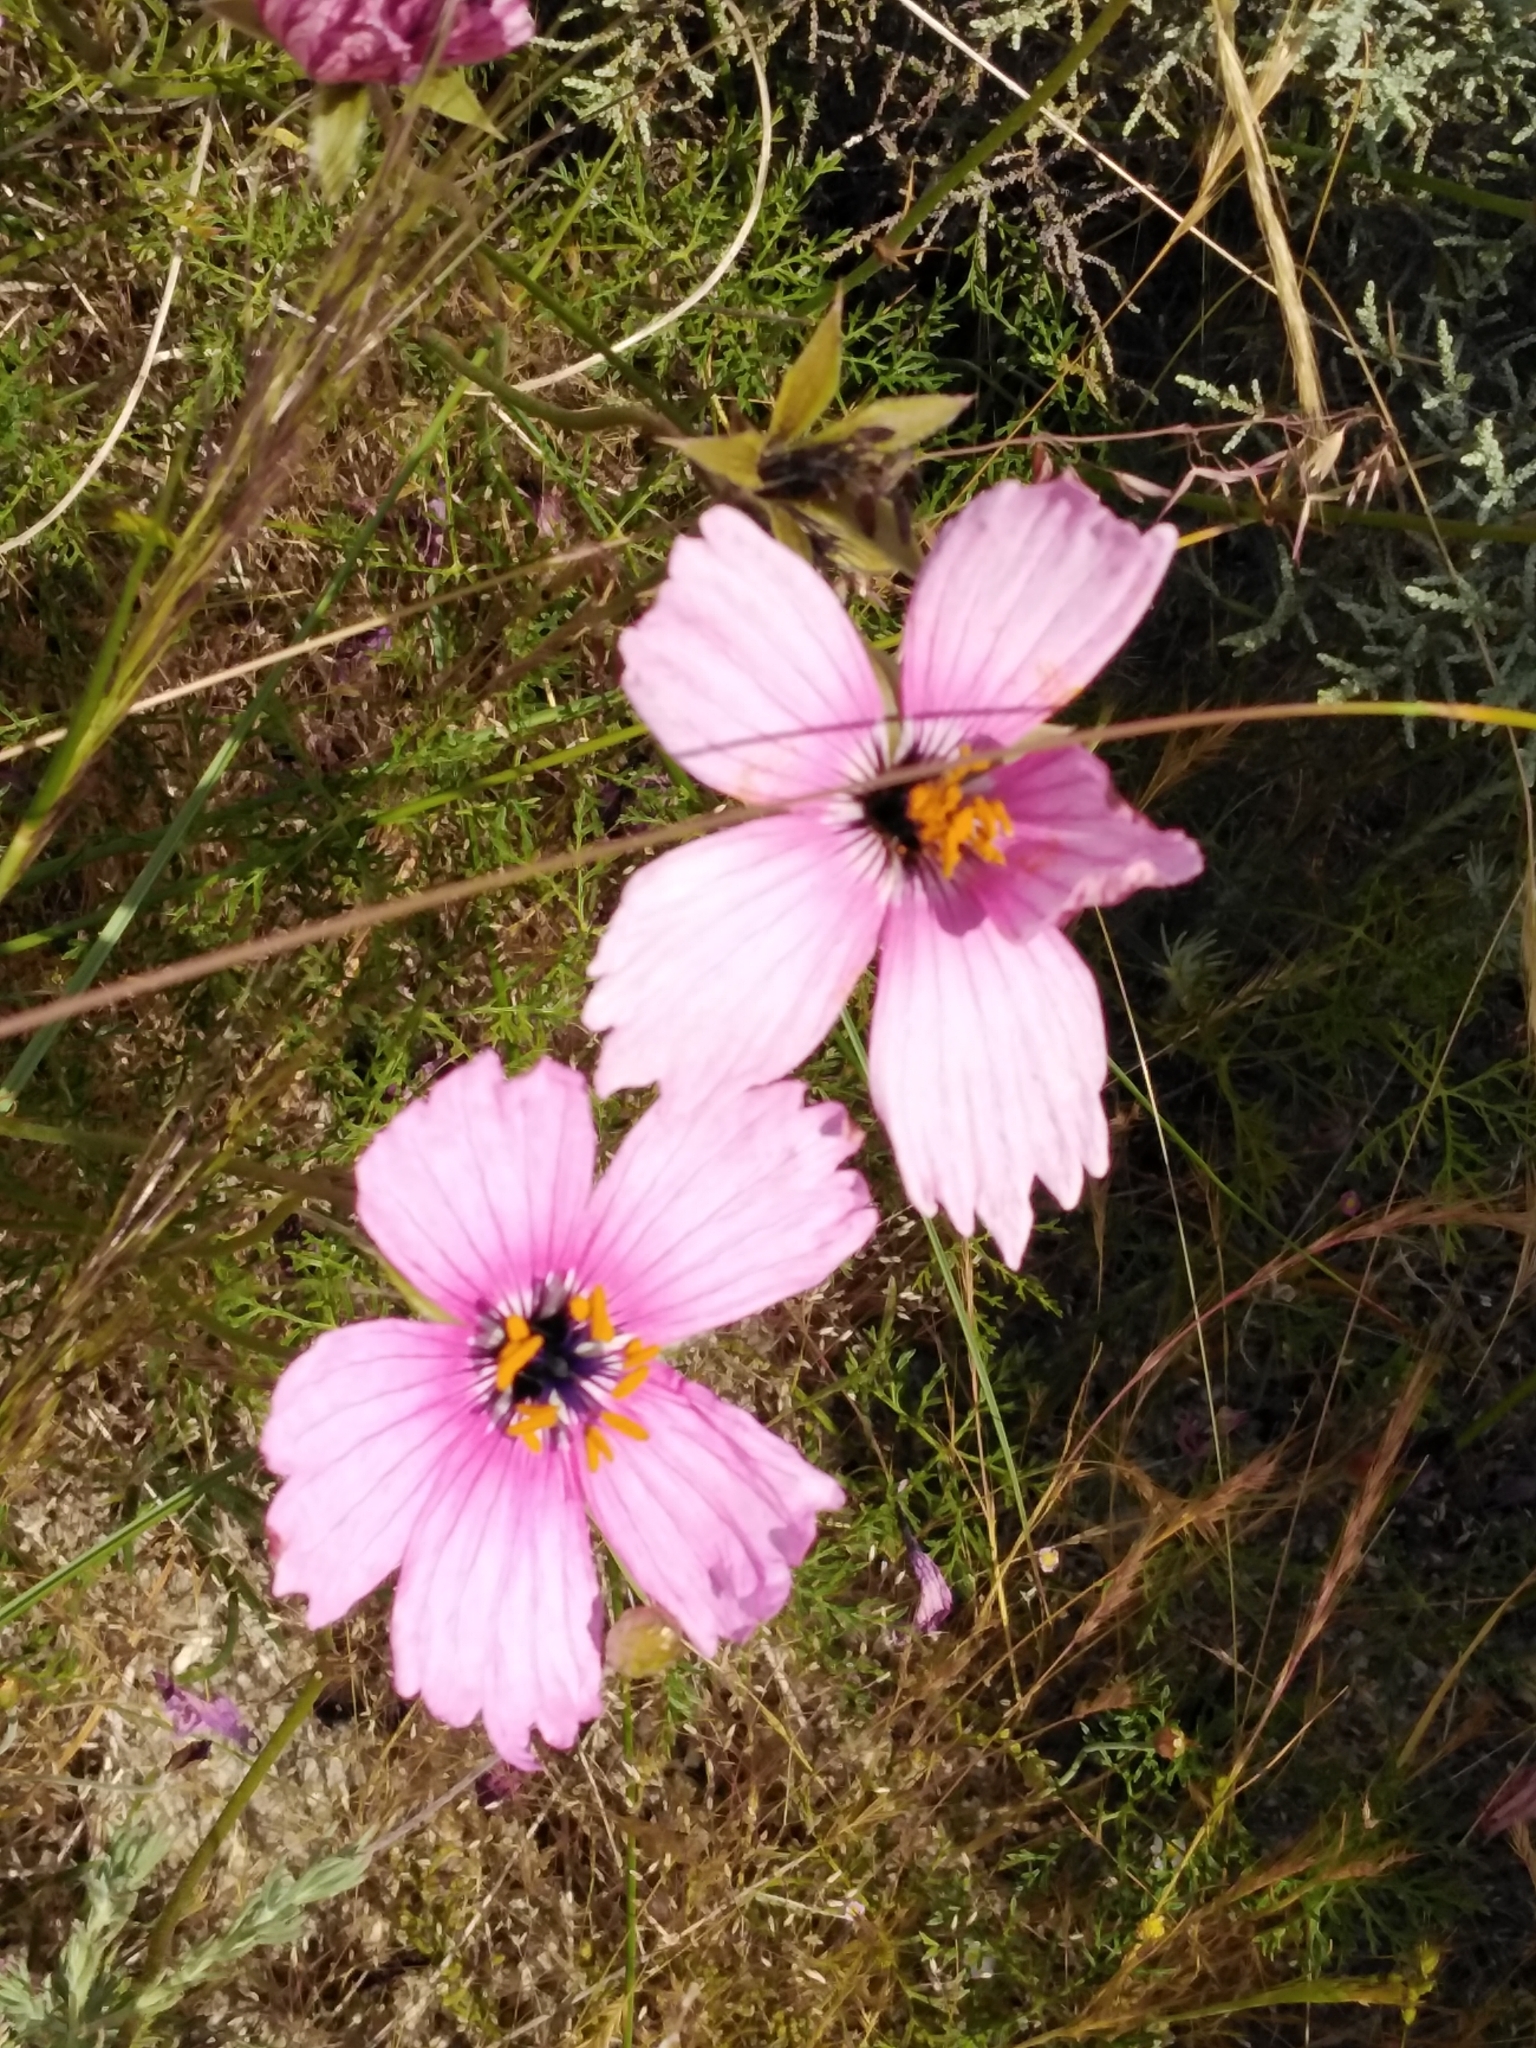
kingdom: Plantae
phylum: Tracheophyta
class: Magnoliopsida
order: Geraniales
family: Geraniaceae
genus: Monsonia
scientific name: Monsonia speciosa
